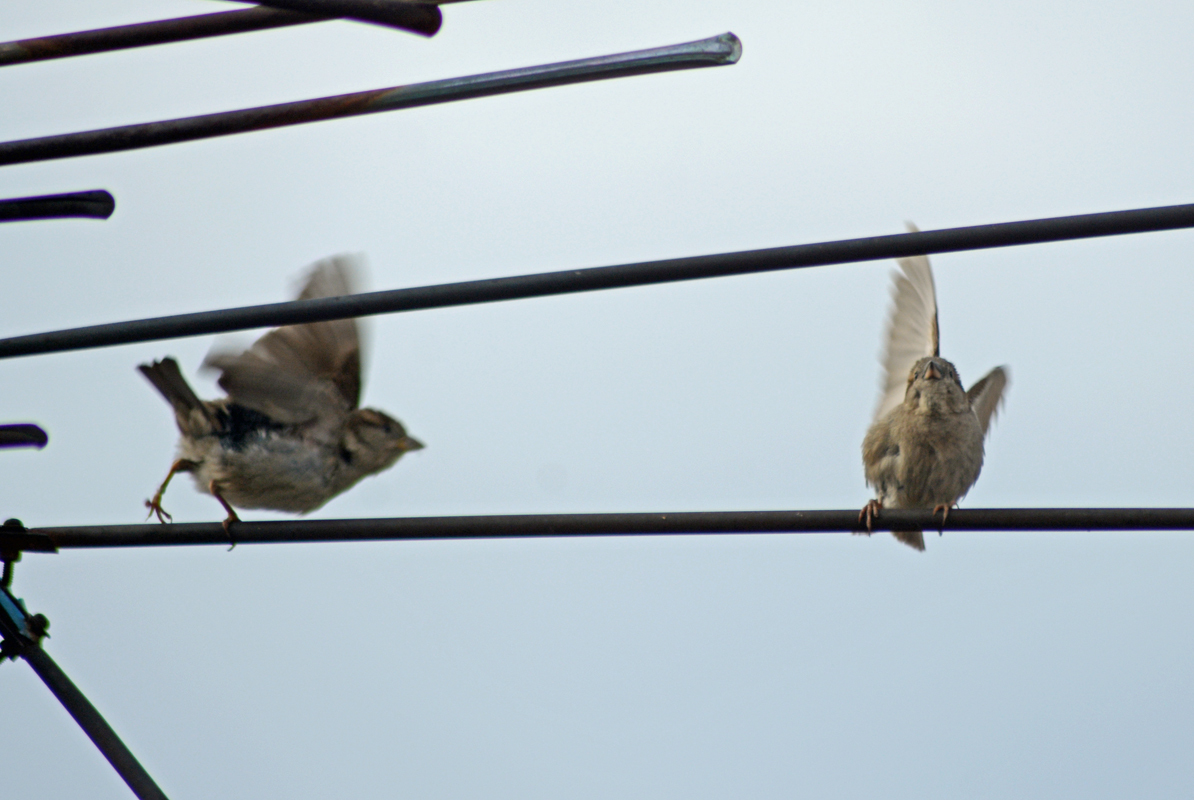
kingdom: Animalia
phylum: Chordata
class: Aves
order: Passeriformes
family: Passeridae
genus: Passer
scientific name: Passer domesticus
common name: House sparrow
